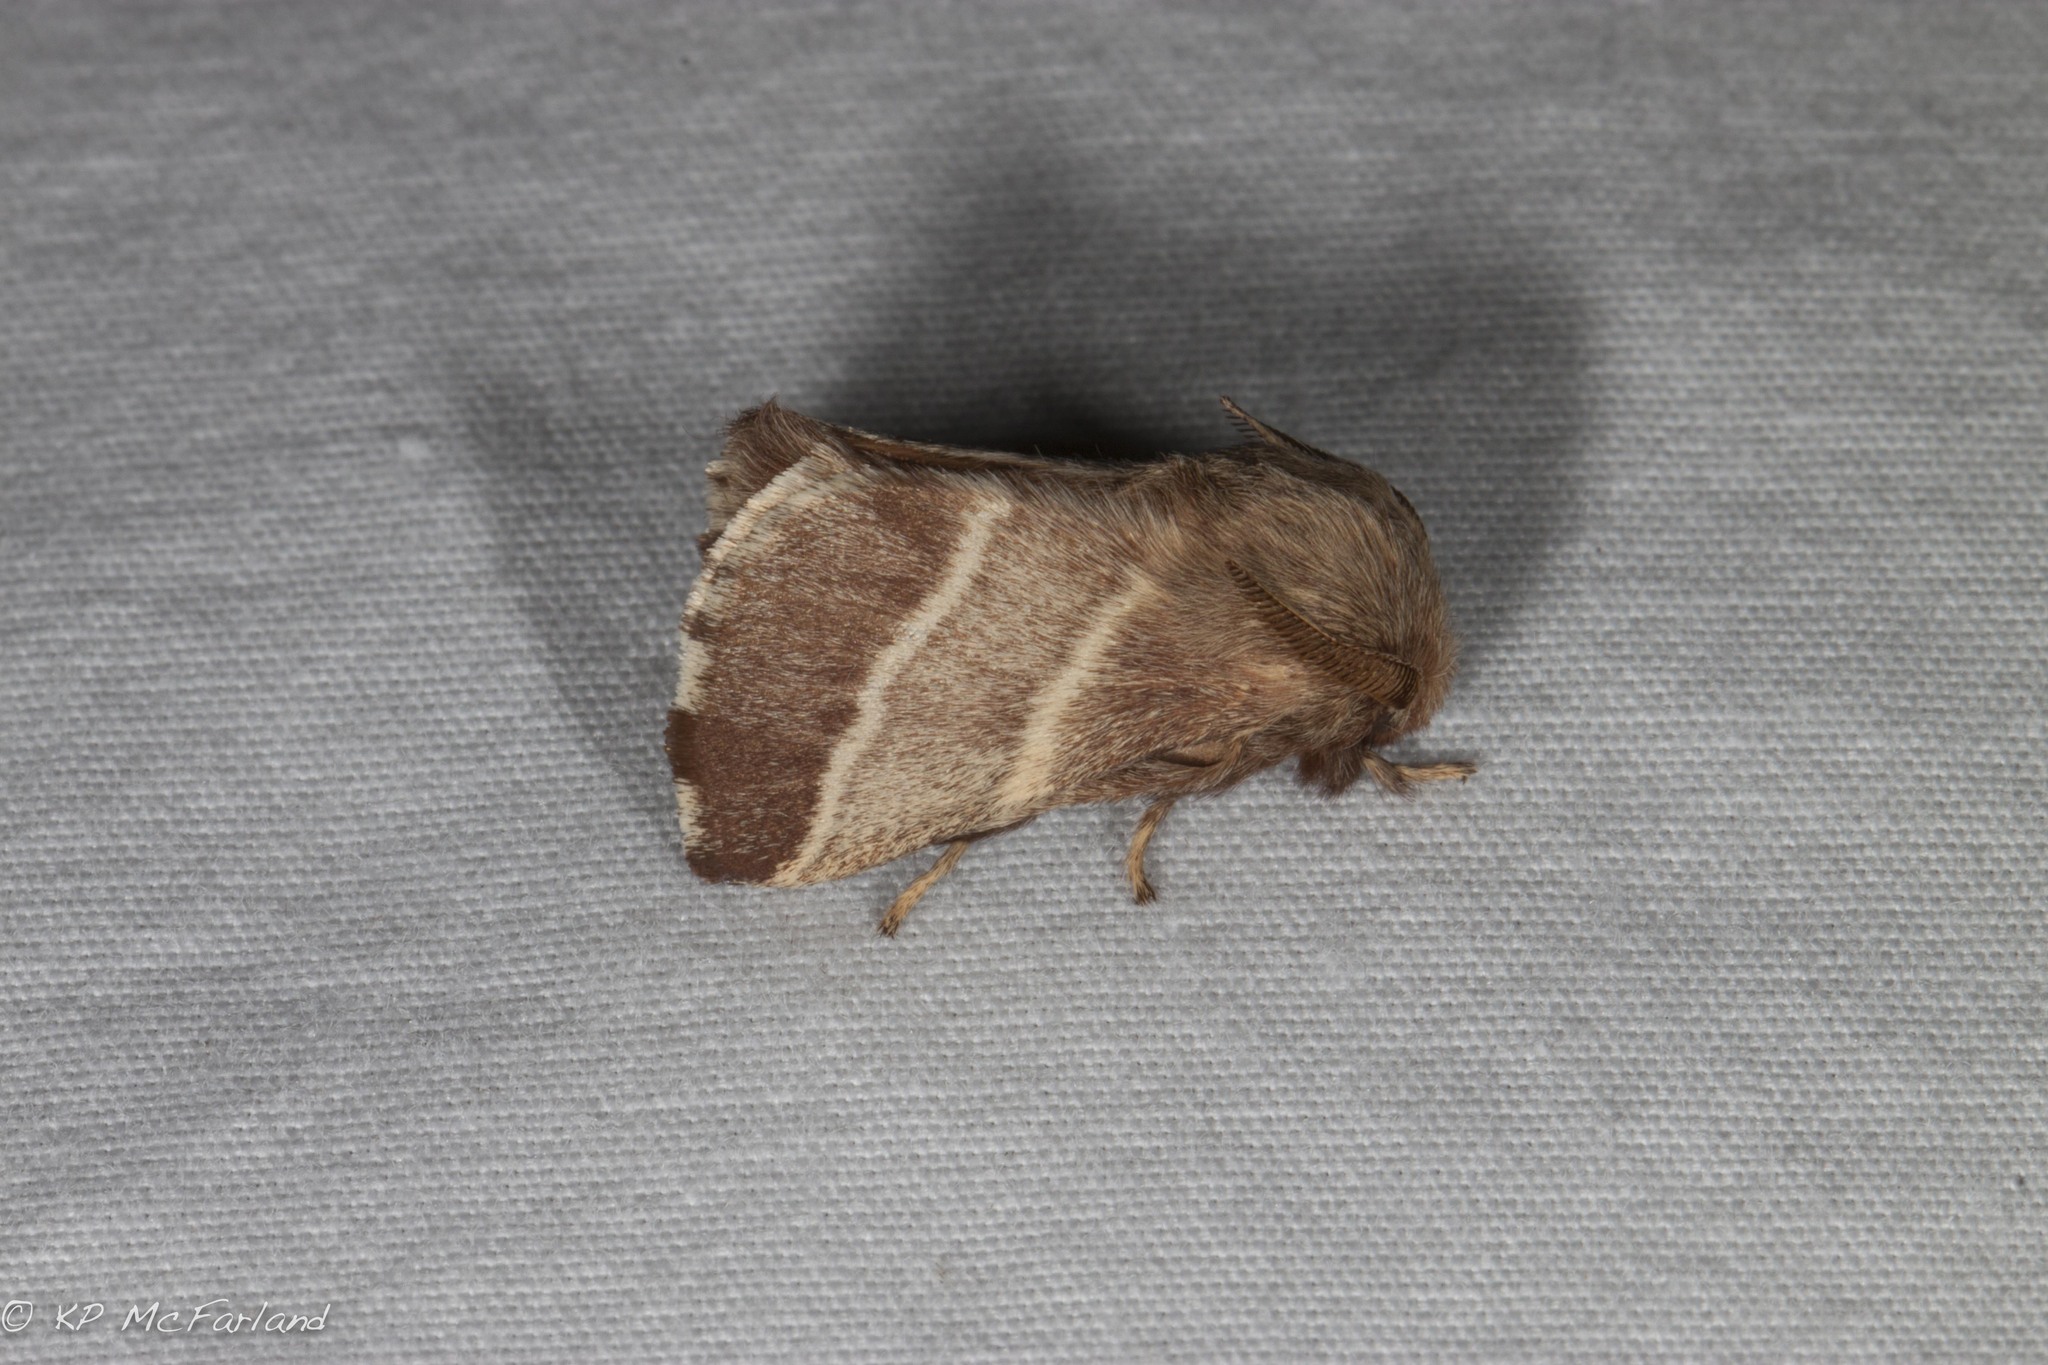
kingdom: Animalia
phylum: Arthropoda
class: Insecta
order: Lepidoptera
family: Lasiocampidae
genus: Malacosoma
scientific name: Malacosoma americana
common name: Eastern tent caterpillar moth
